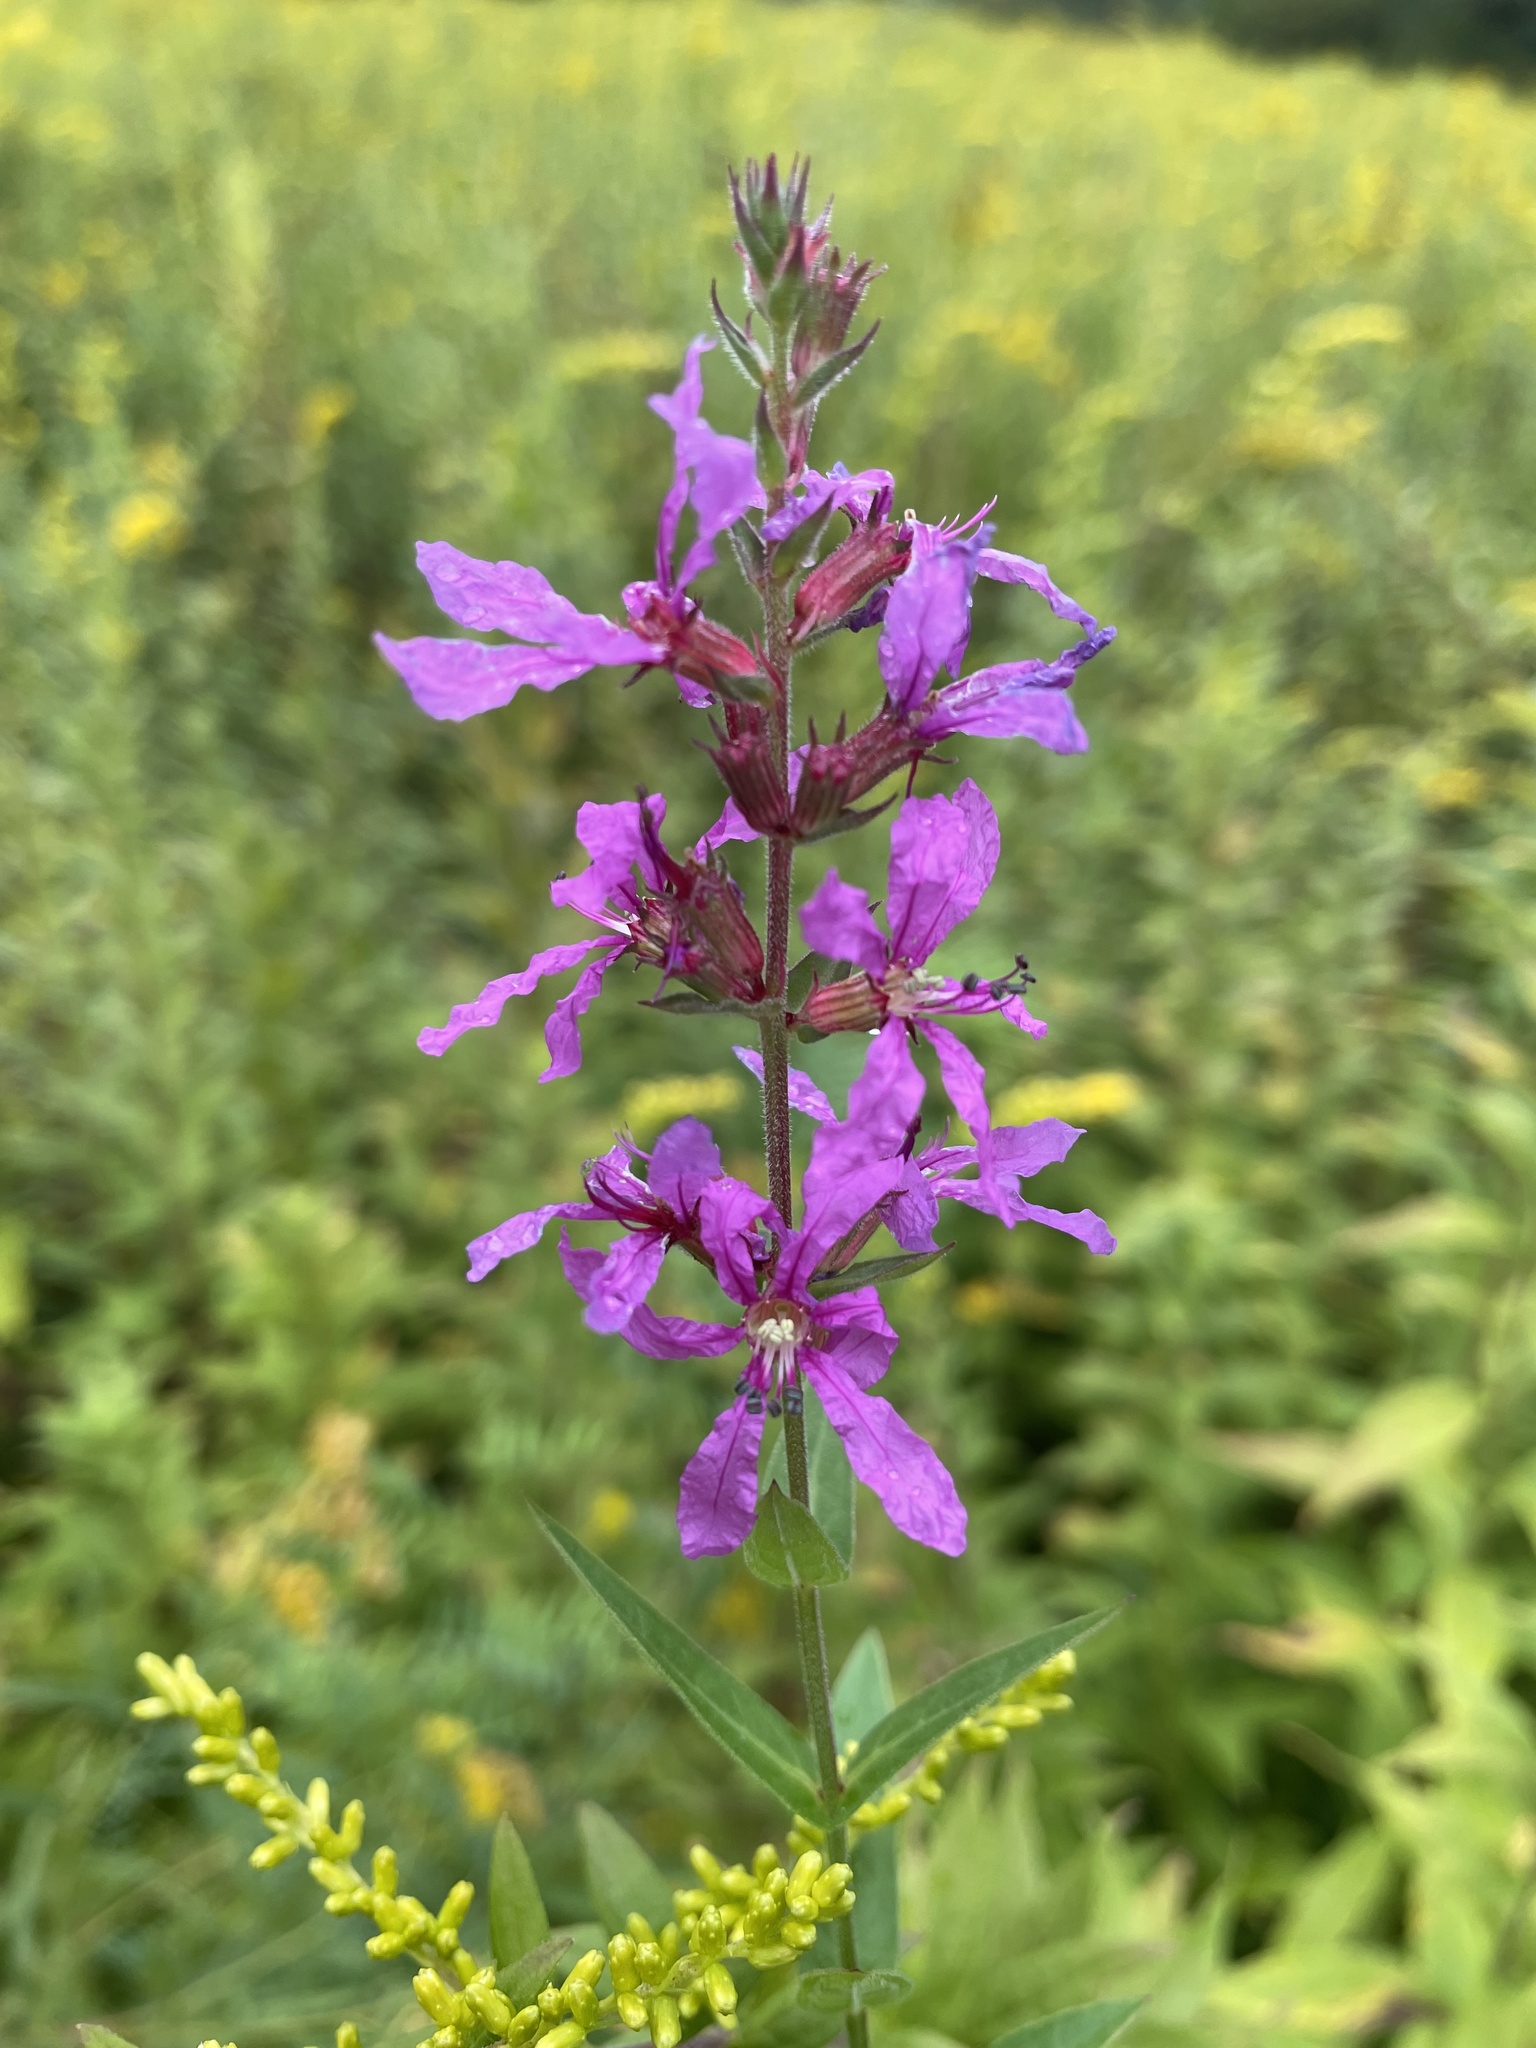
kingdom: Plantae
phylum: Tracheophyta
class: Magnoliopsida
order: Myrtales
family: Lythraceae
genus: Lythrum
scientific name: Lythrum salicaria
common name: Purple loosestrife
